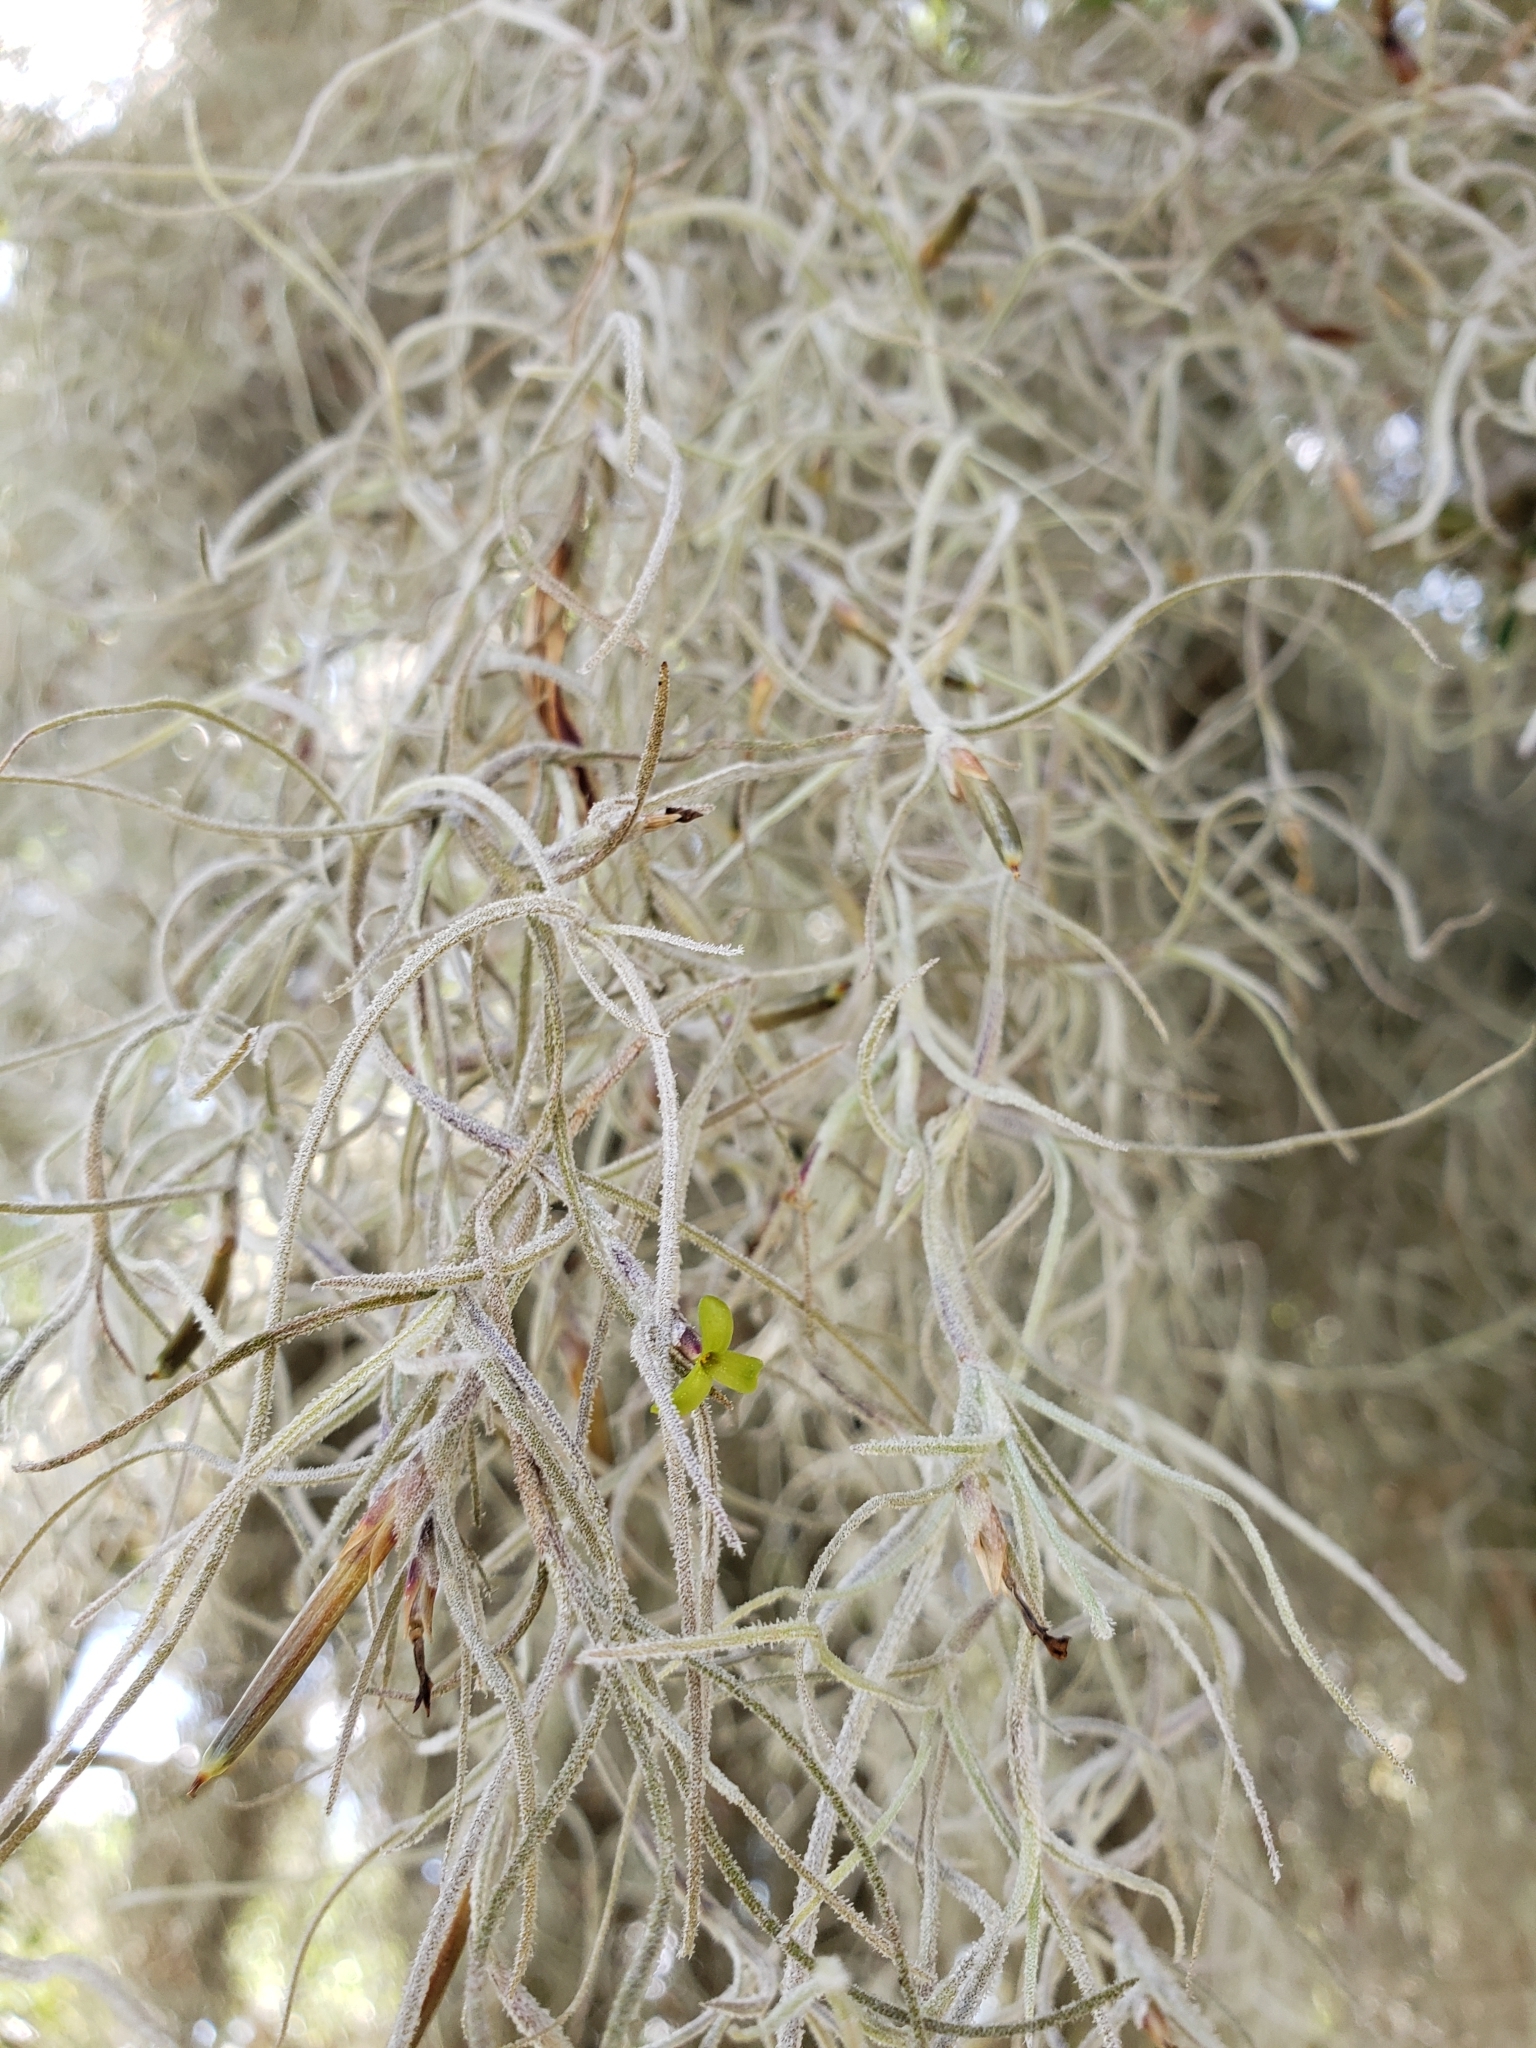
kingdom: Plantae
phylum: Tracheophyta
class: Liliopsida
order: Poales
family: Bromeliaceae
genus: Tillandsia
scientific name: Tillandsia usneoides
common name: Spanish moss
